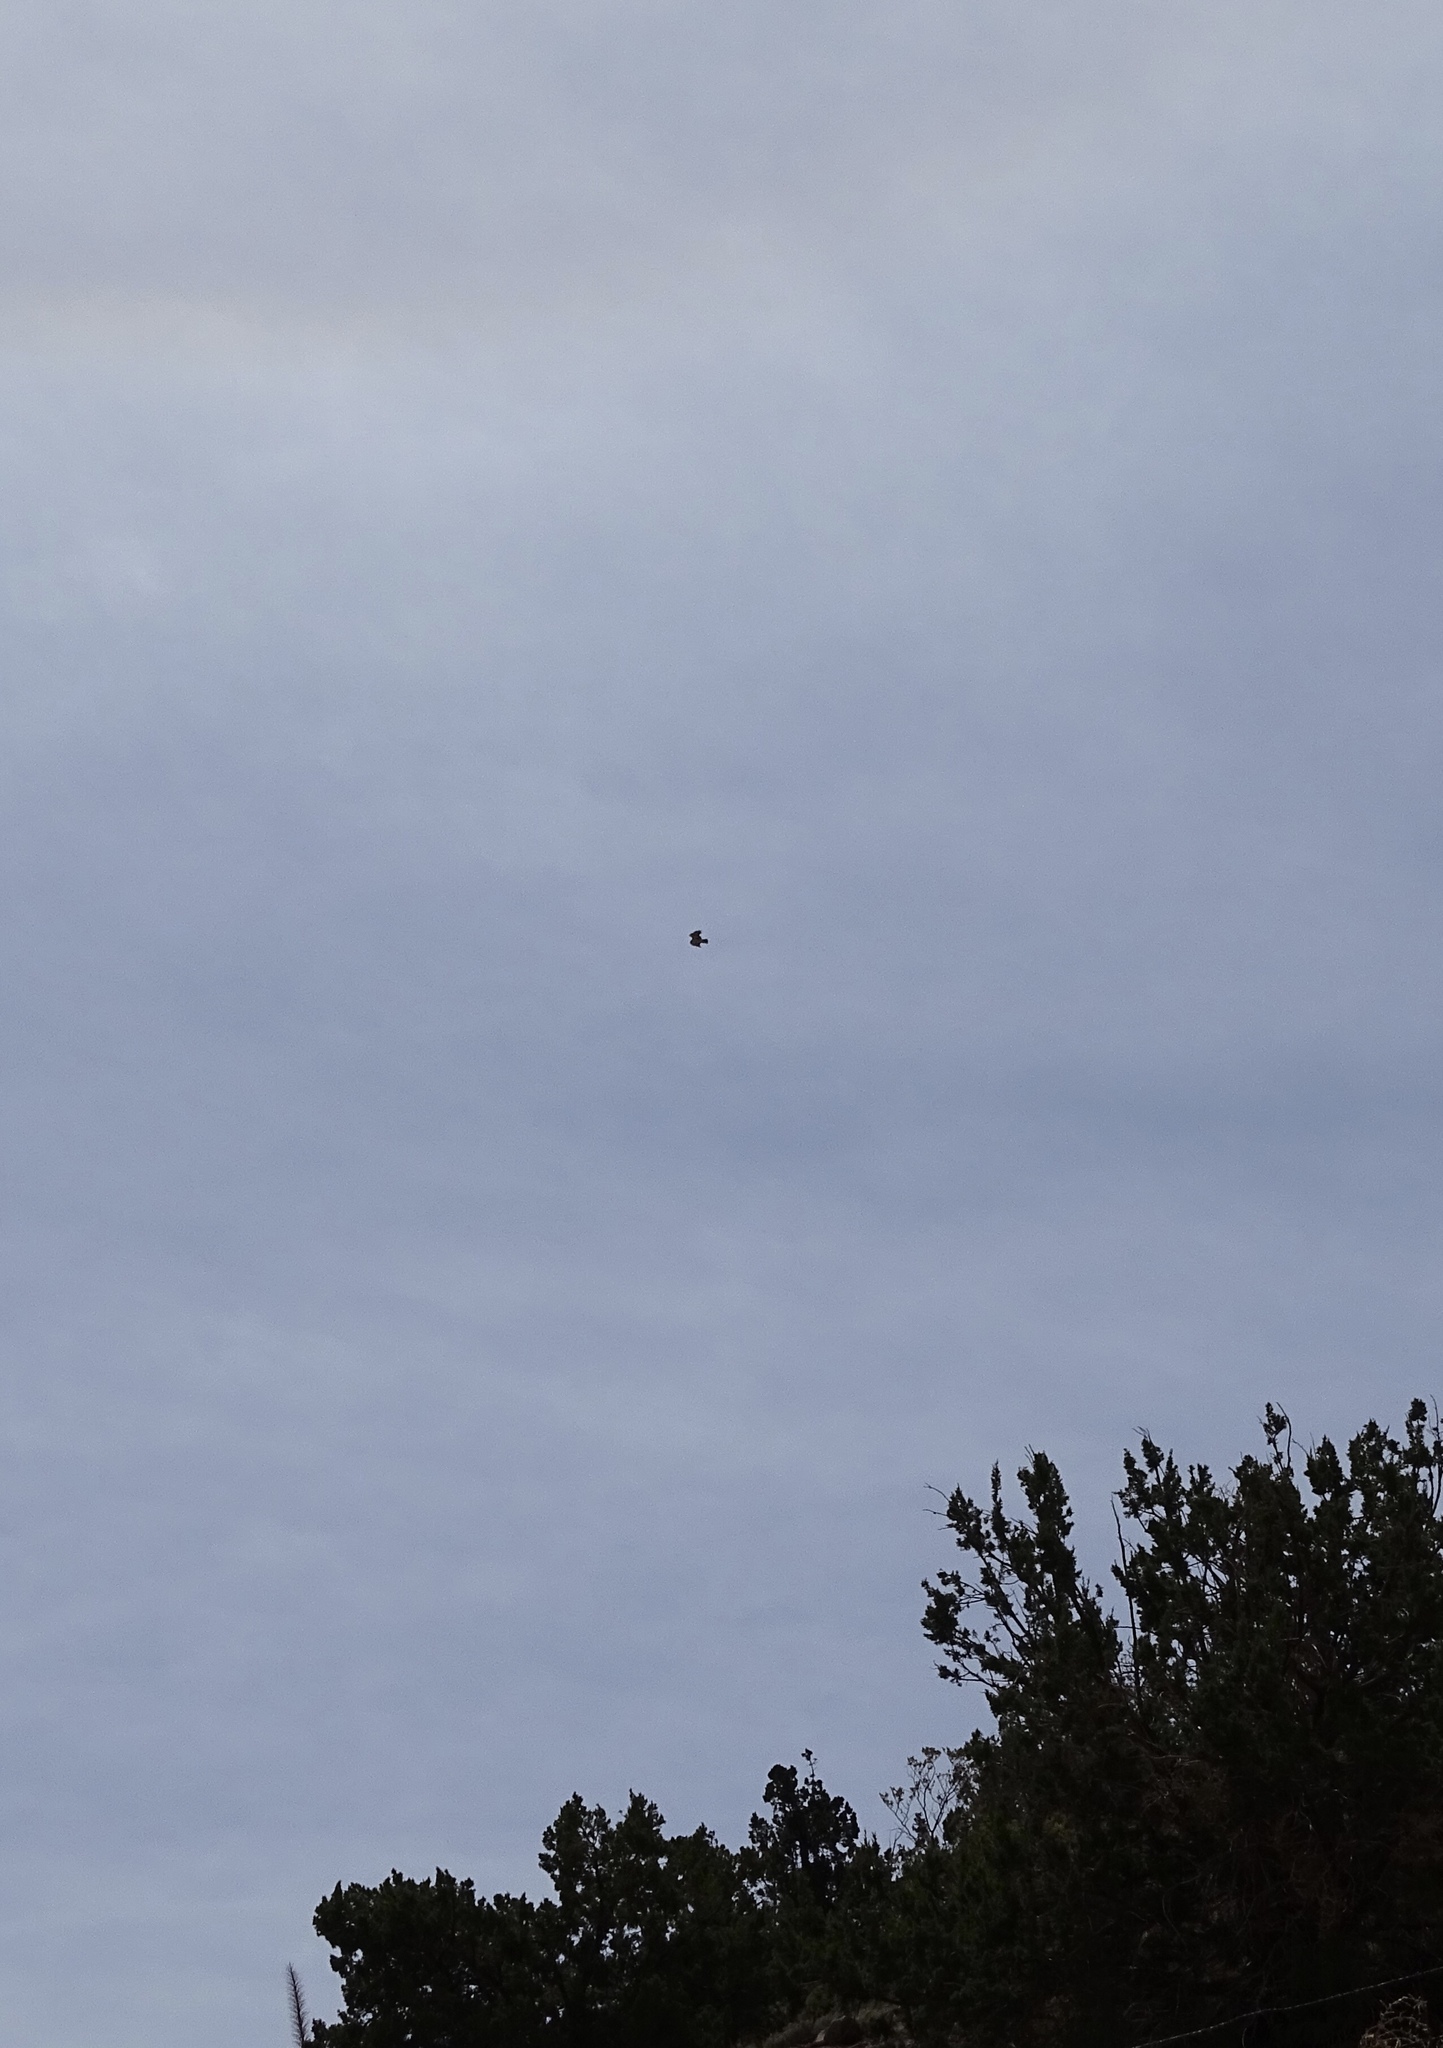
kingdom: Animalia
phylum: Chordata
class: Aves
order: Accipitriformes
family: Accipitridae
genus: Buteo
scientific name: Buteo jamaicensis
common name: Red-tailed hawk
